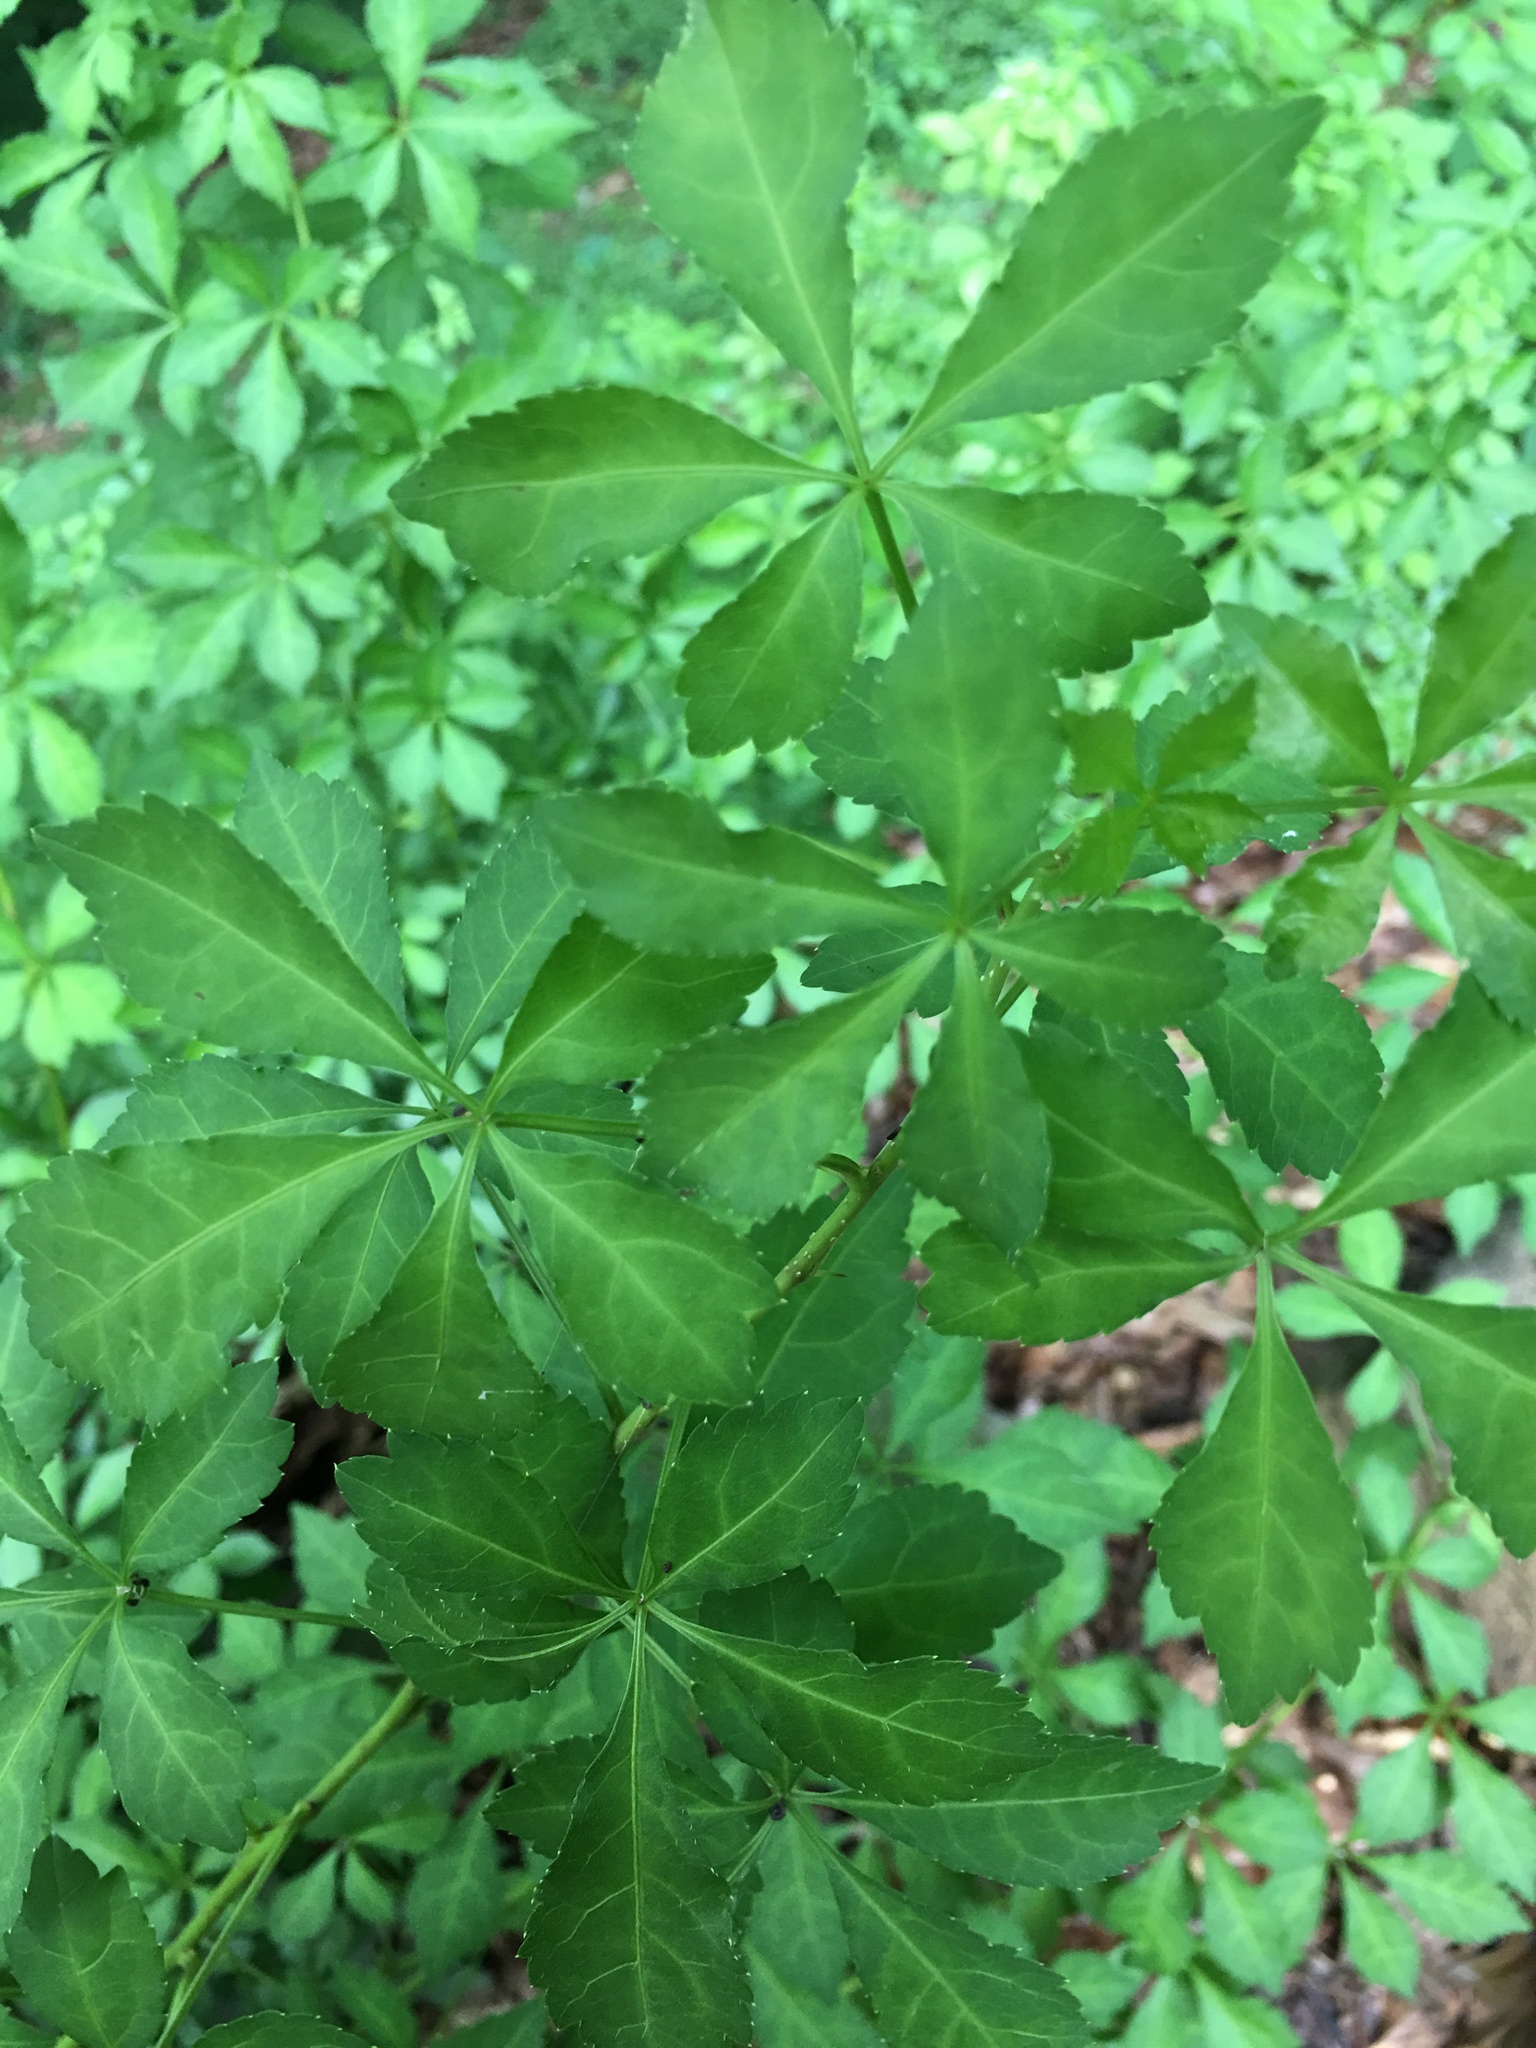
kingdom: Plantae
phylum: Tracheophyta
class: Magnoliopsida
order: Apiales
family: Araliaceae
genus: Eleutherococcus
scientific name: Eleutherococcus sieboldianus
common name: Ginseng
